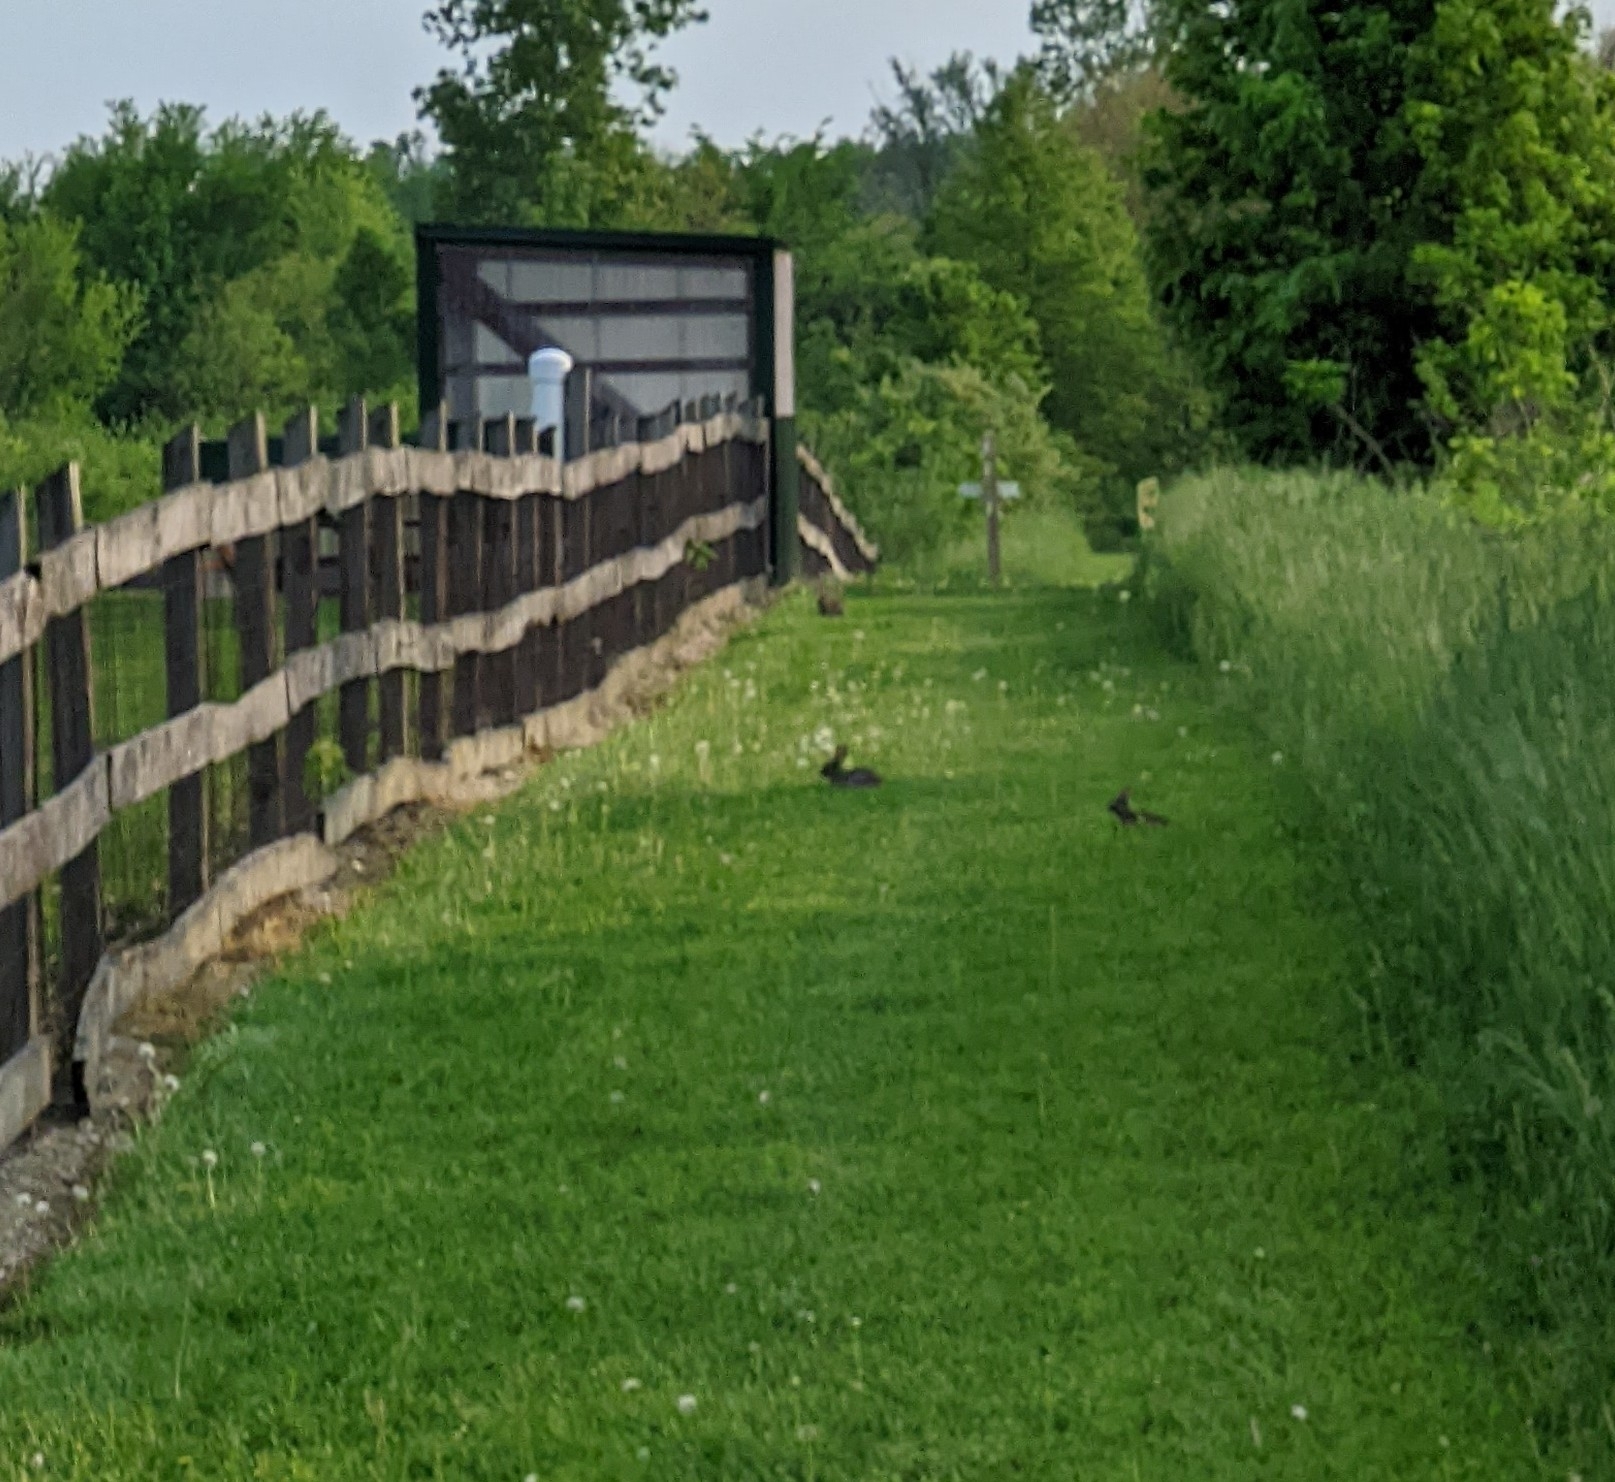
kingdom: Animalia
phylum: Chordata
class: Mammalia
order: Lagomorpha
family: Leporidae
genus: Sylvilagus
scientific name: Sylvilagus floridanus
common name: Eastern cottontail
